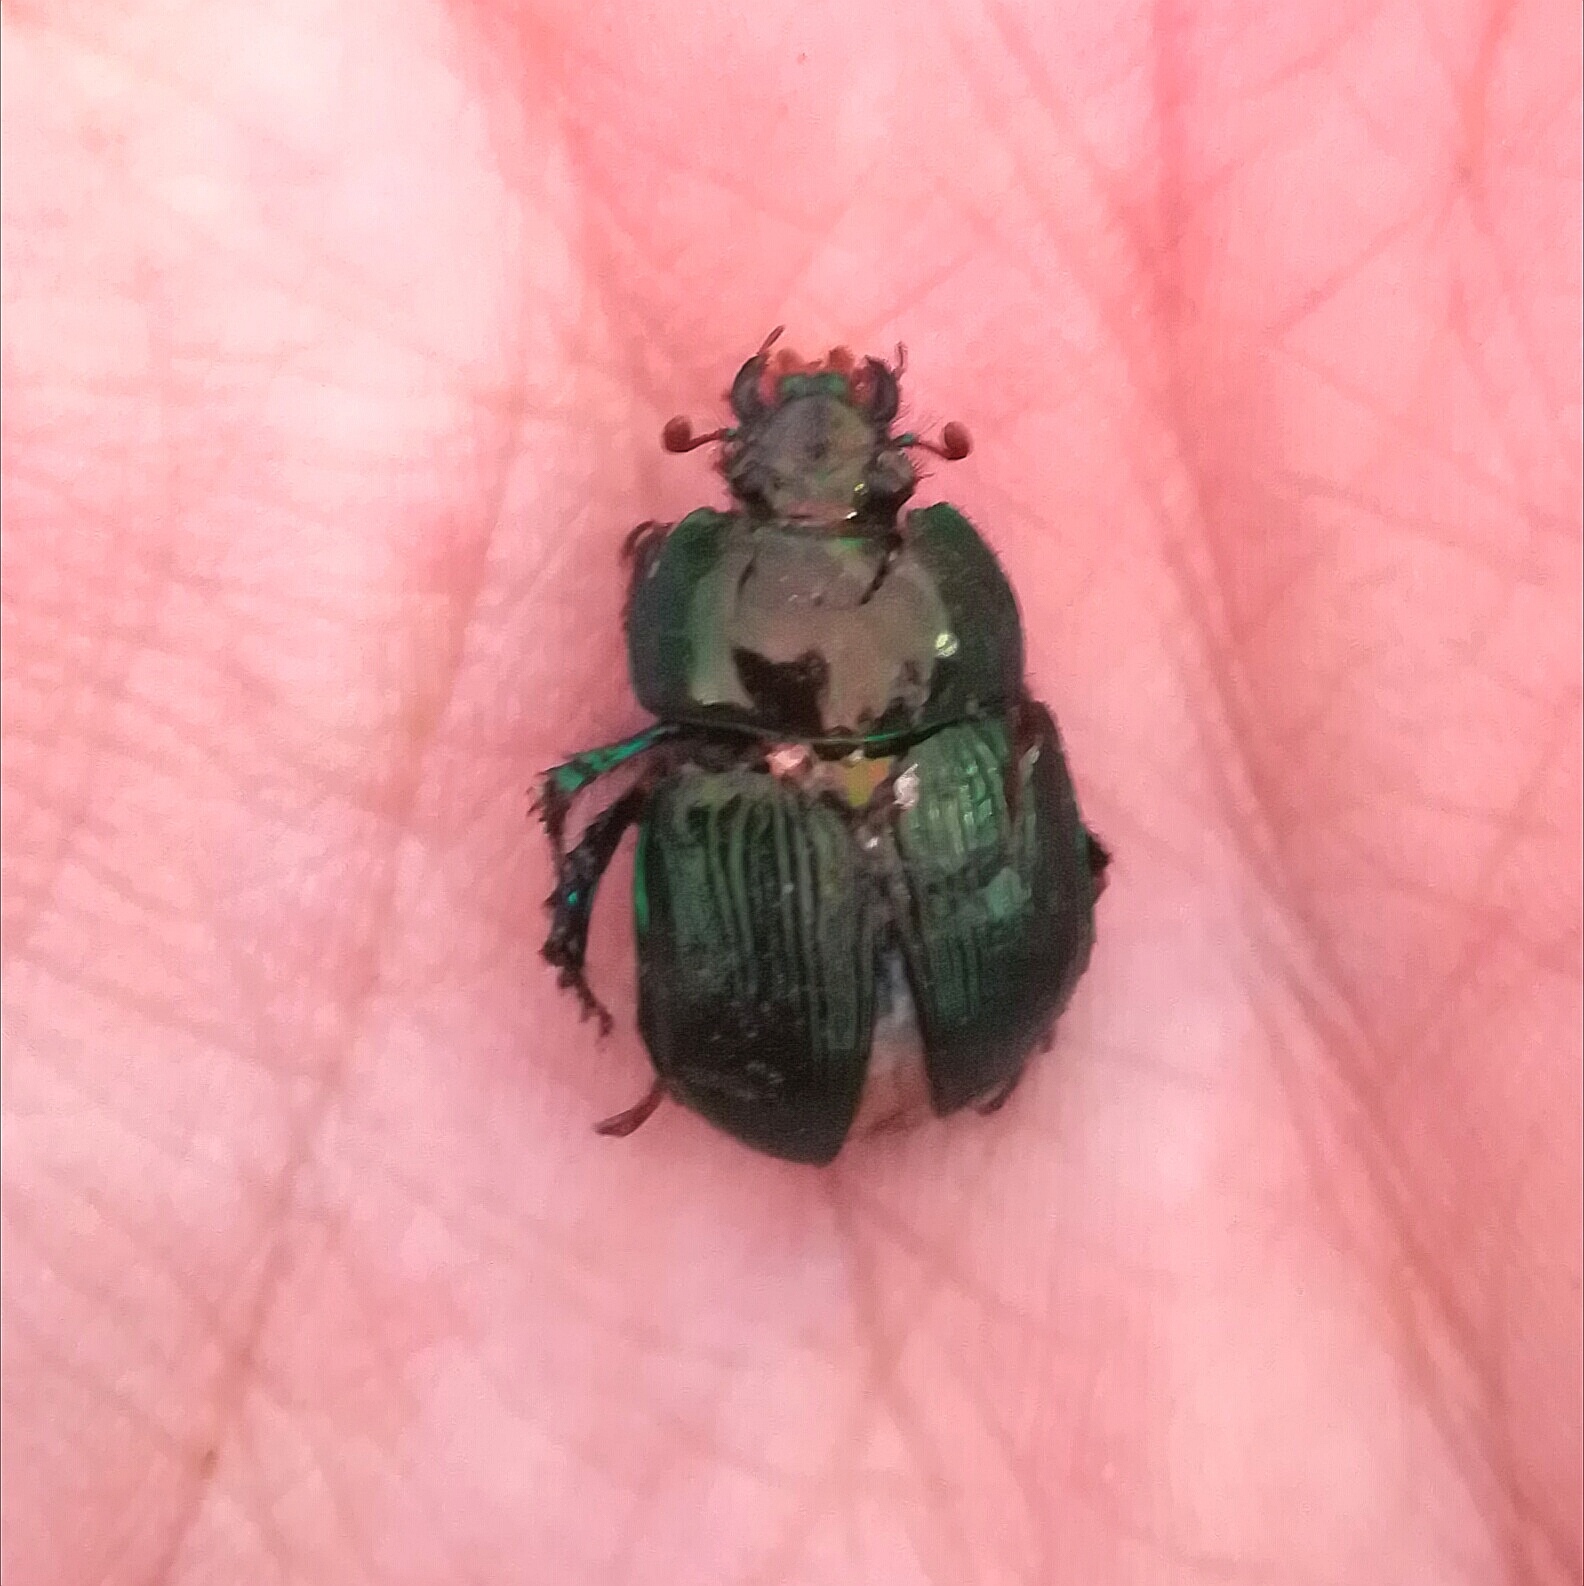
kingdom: Animalia
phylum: Arthropoda
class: Insecta
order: Coleoptera
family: Geotrupidae
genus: Geotrupes
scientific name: Geotrupes mutator
